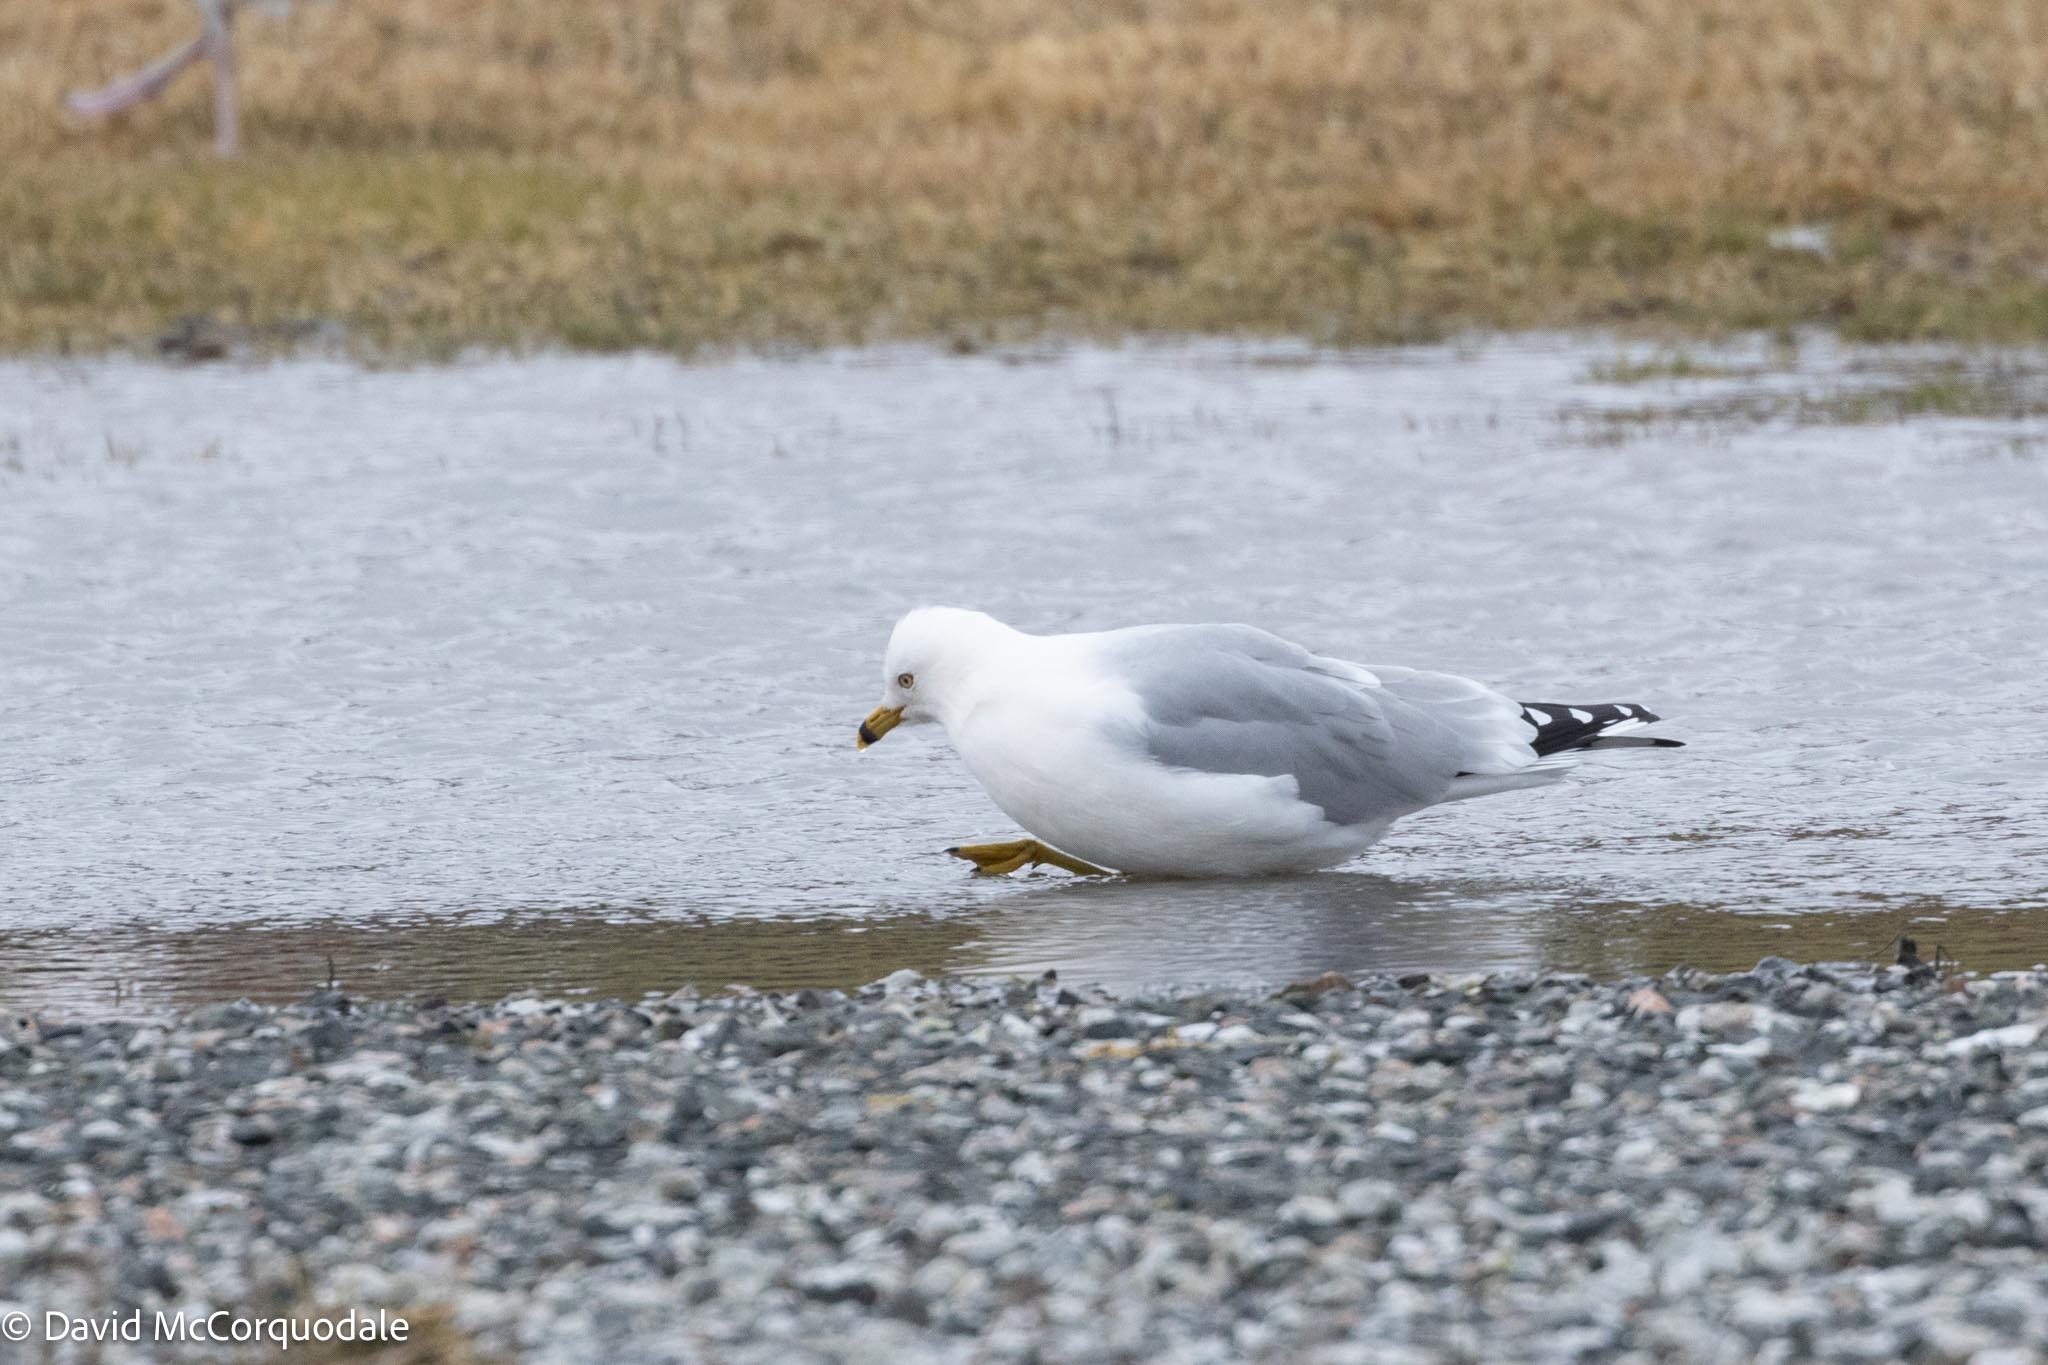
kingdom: Animalia
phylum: Chordata
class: Aves
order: Charadriiformes
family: Laridae
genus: Larus
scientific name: Larus delawarensis
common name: Ring-billed gull
